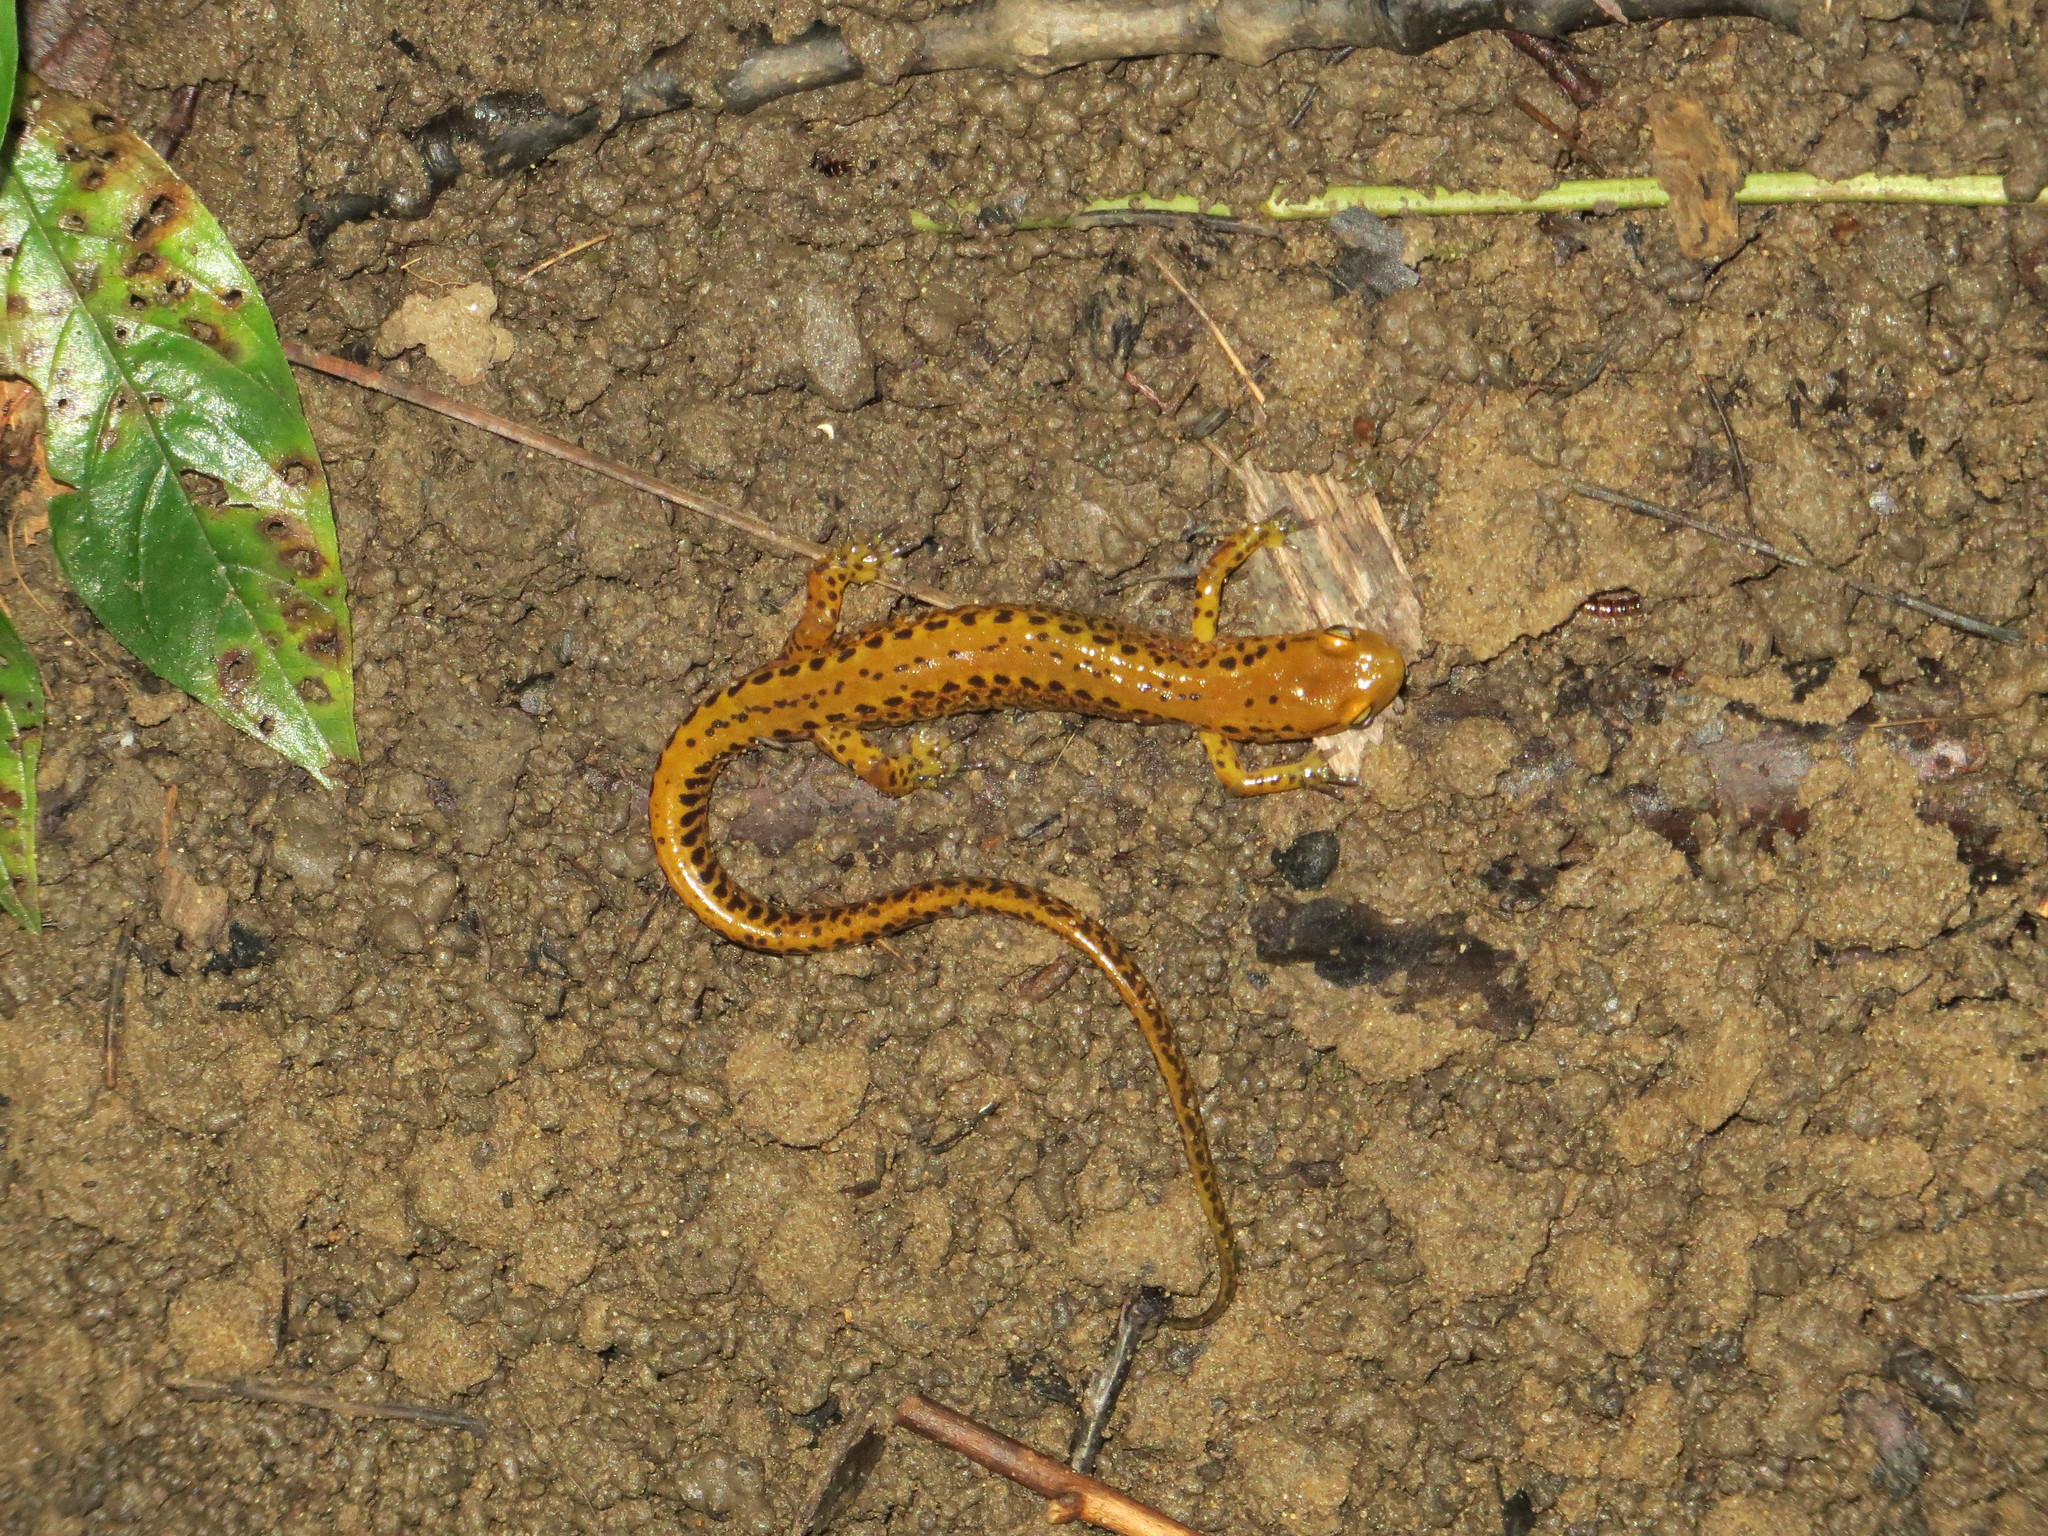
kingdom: Animalia
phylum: Chordata
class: Amphibia
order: Caudata
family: Plethodontidae
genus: Eurycea
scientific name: Eurycea longicauda
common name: Long-tailed salamander
